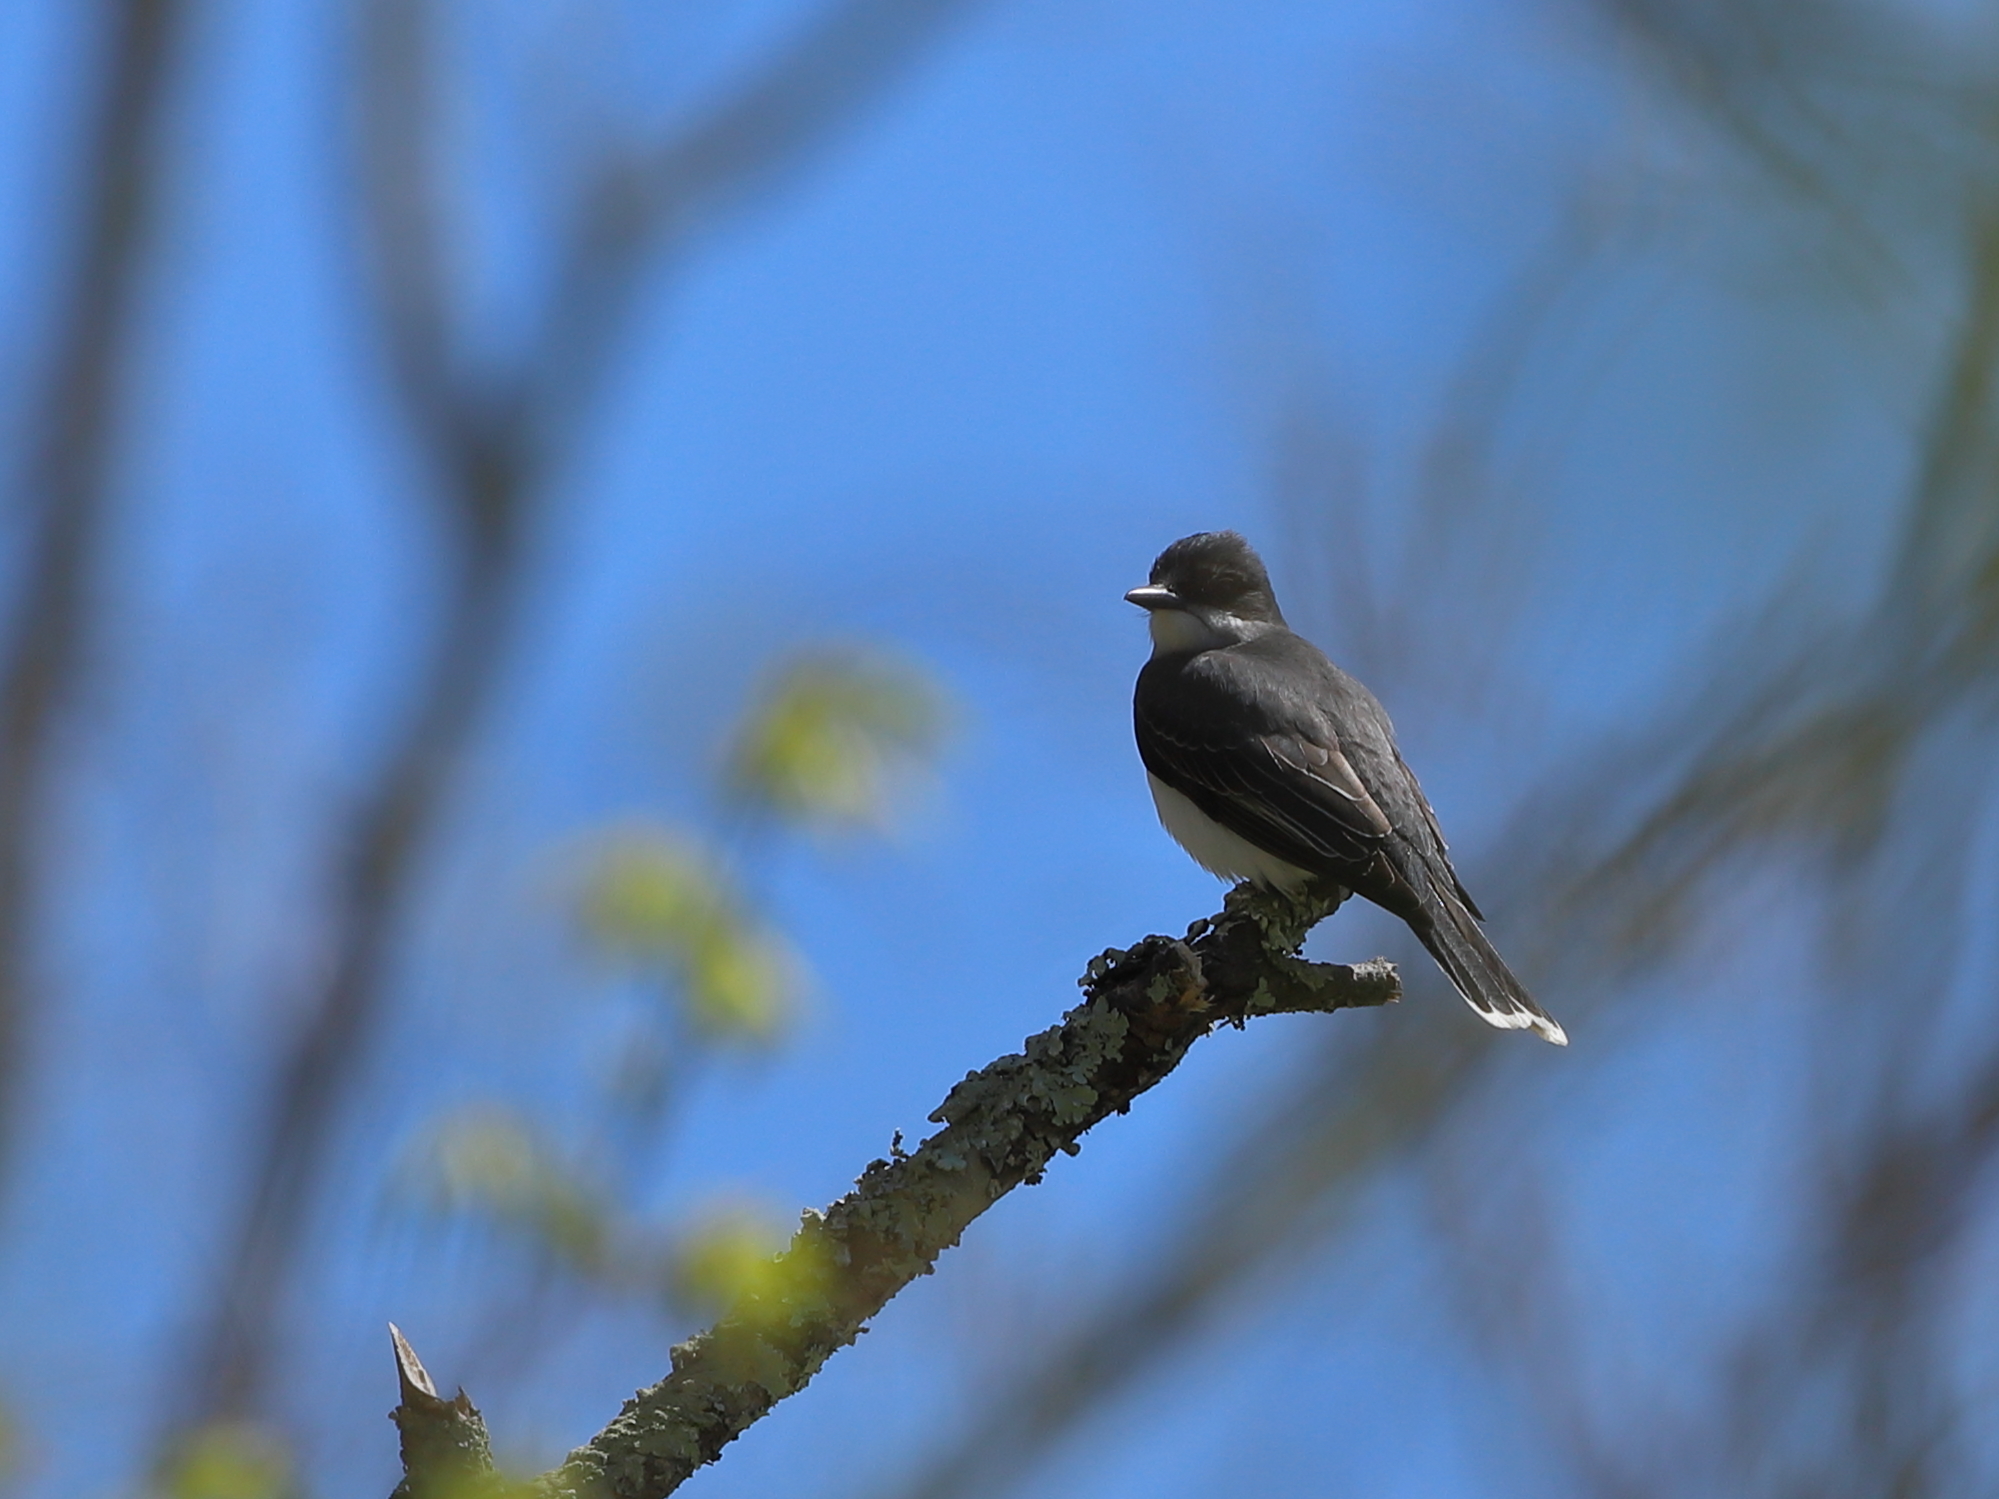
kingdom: Animalia
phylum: Chordata
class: Aves
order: Passeriformes
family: Tyrannidae
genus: Tyrannus
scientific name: Tyrannus tyrannus
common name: Eastern kingbird
